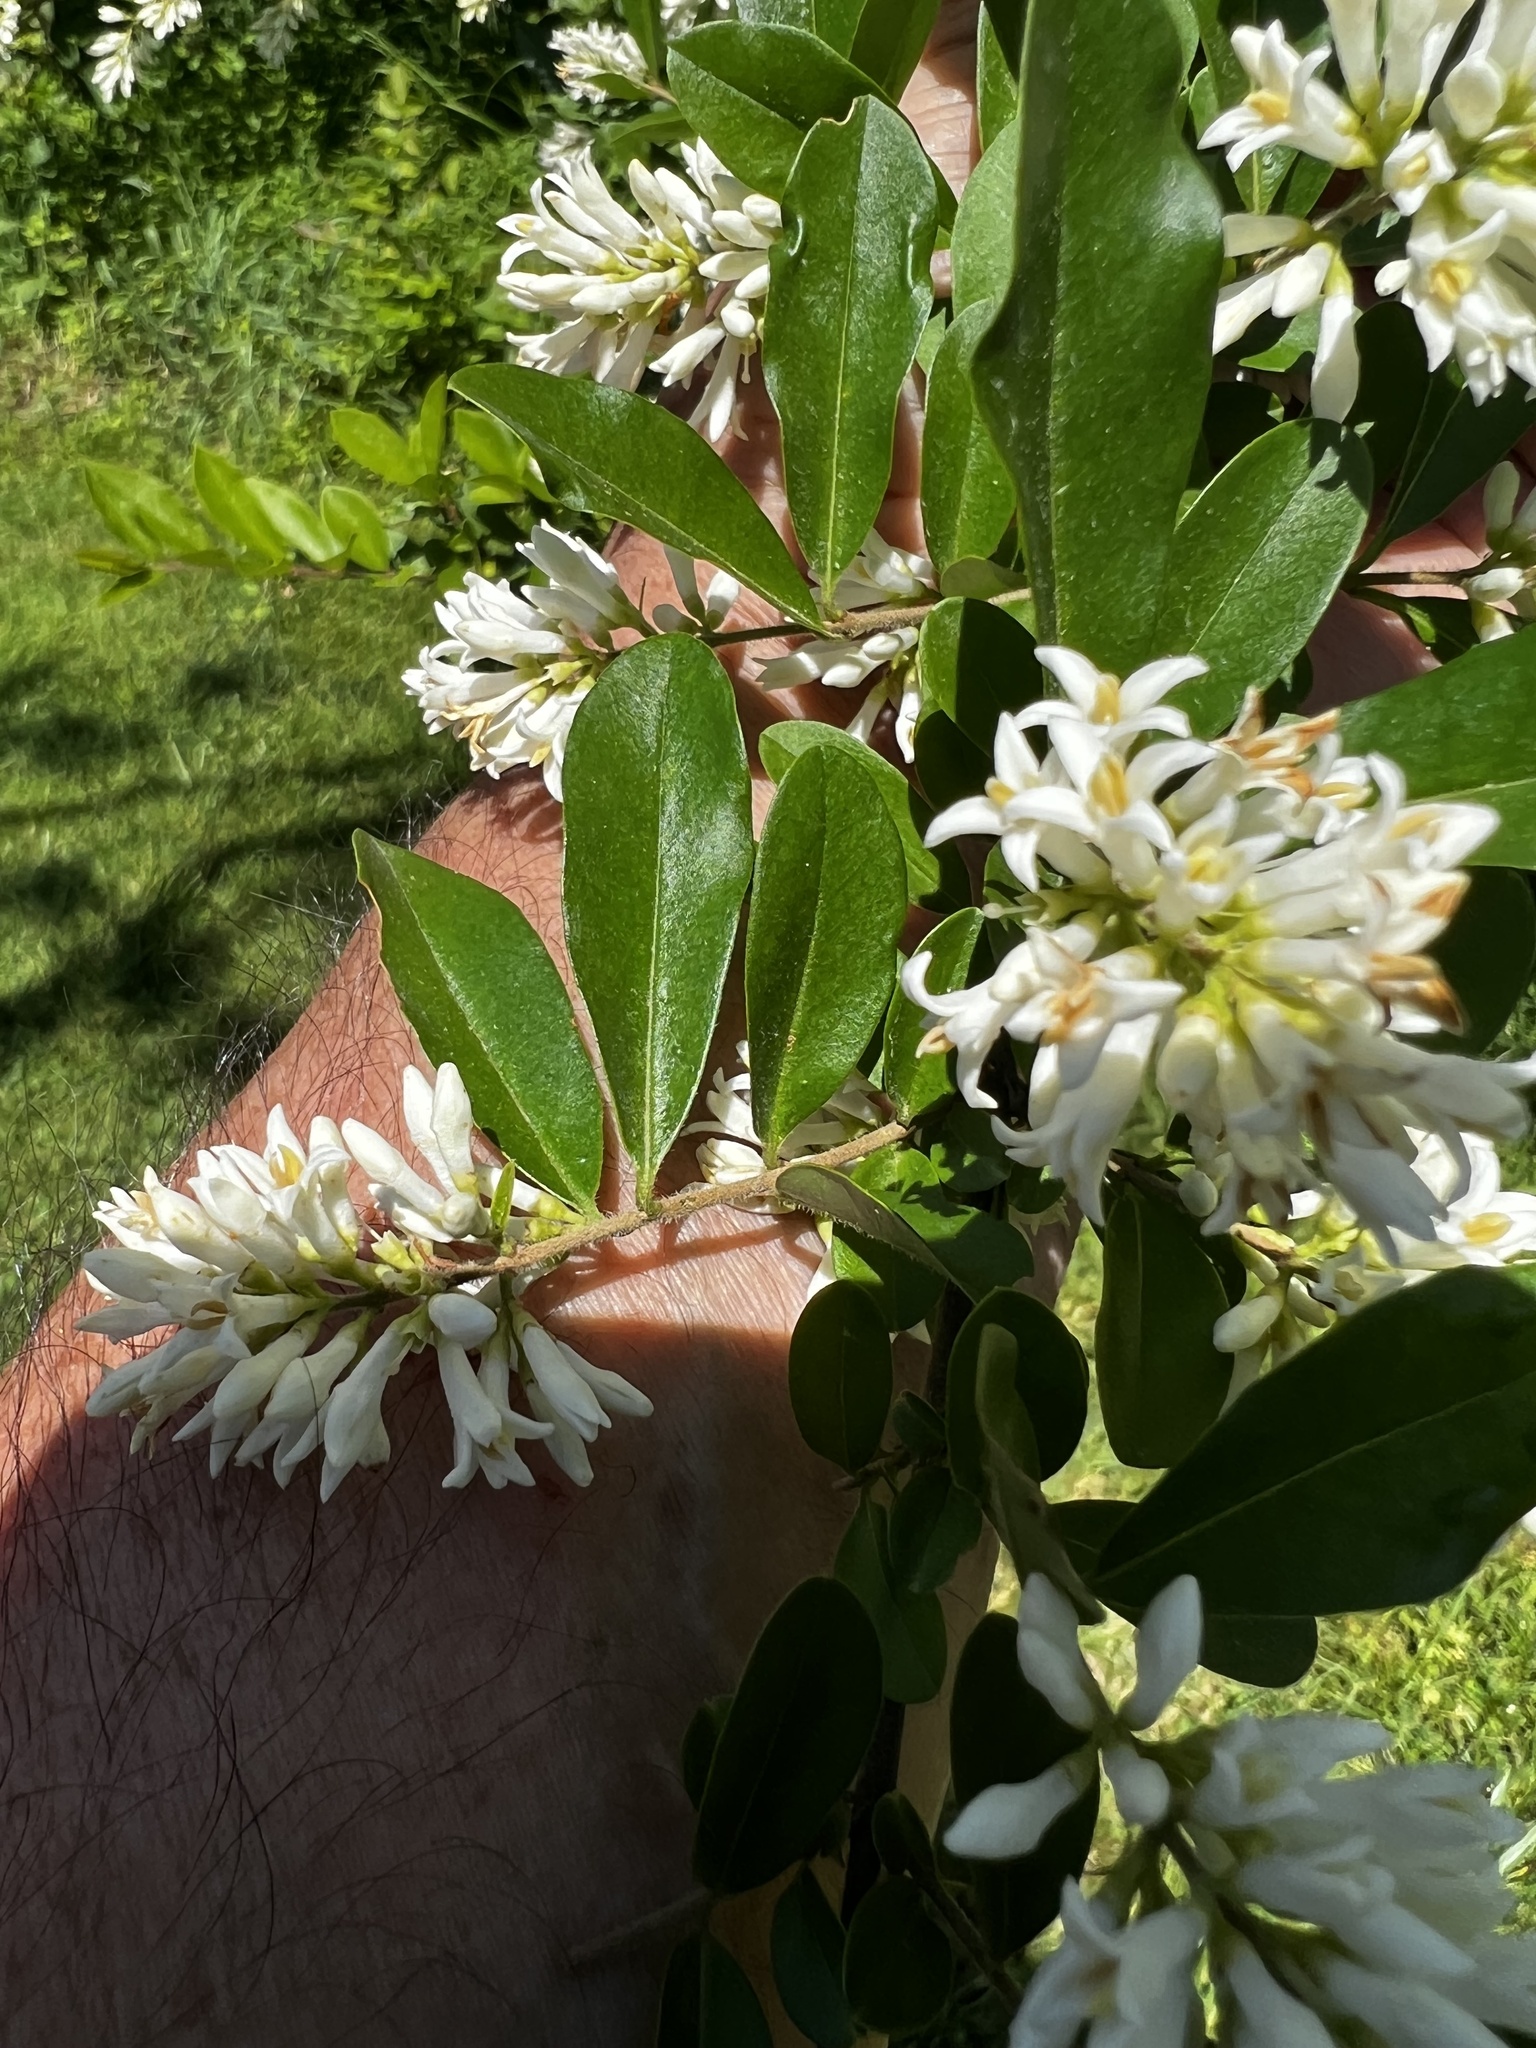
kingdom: Plantae
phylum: Tracheophyta
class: Magnoliopsida
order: Lamiales
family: Oleaceae
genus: Ligustrum
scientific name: Ligustrum obtusifolium
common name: Border privet
